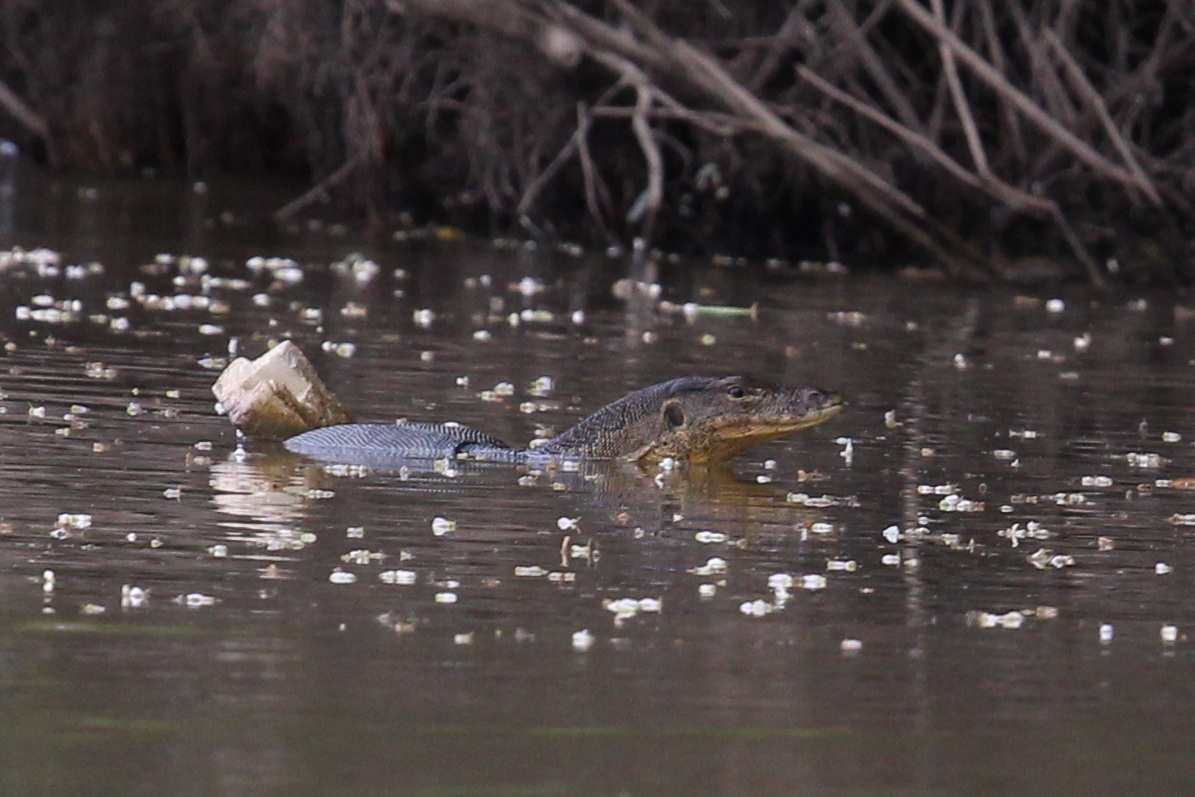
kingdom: Animalia
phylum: Chordata
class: Squamata
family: Varanidae
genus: Varanus
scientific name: Varanus salvator
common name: Common water monitor
